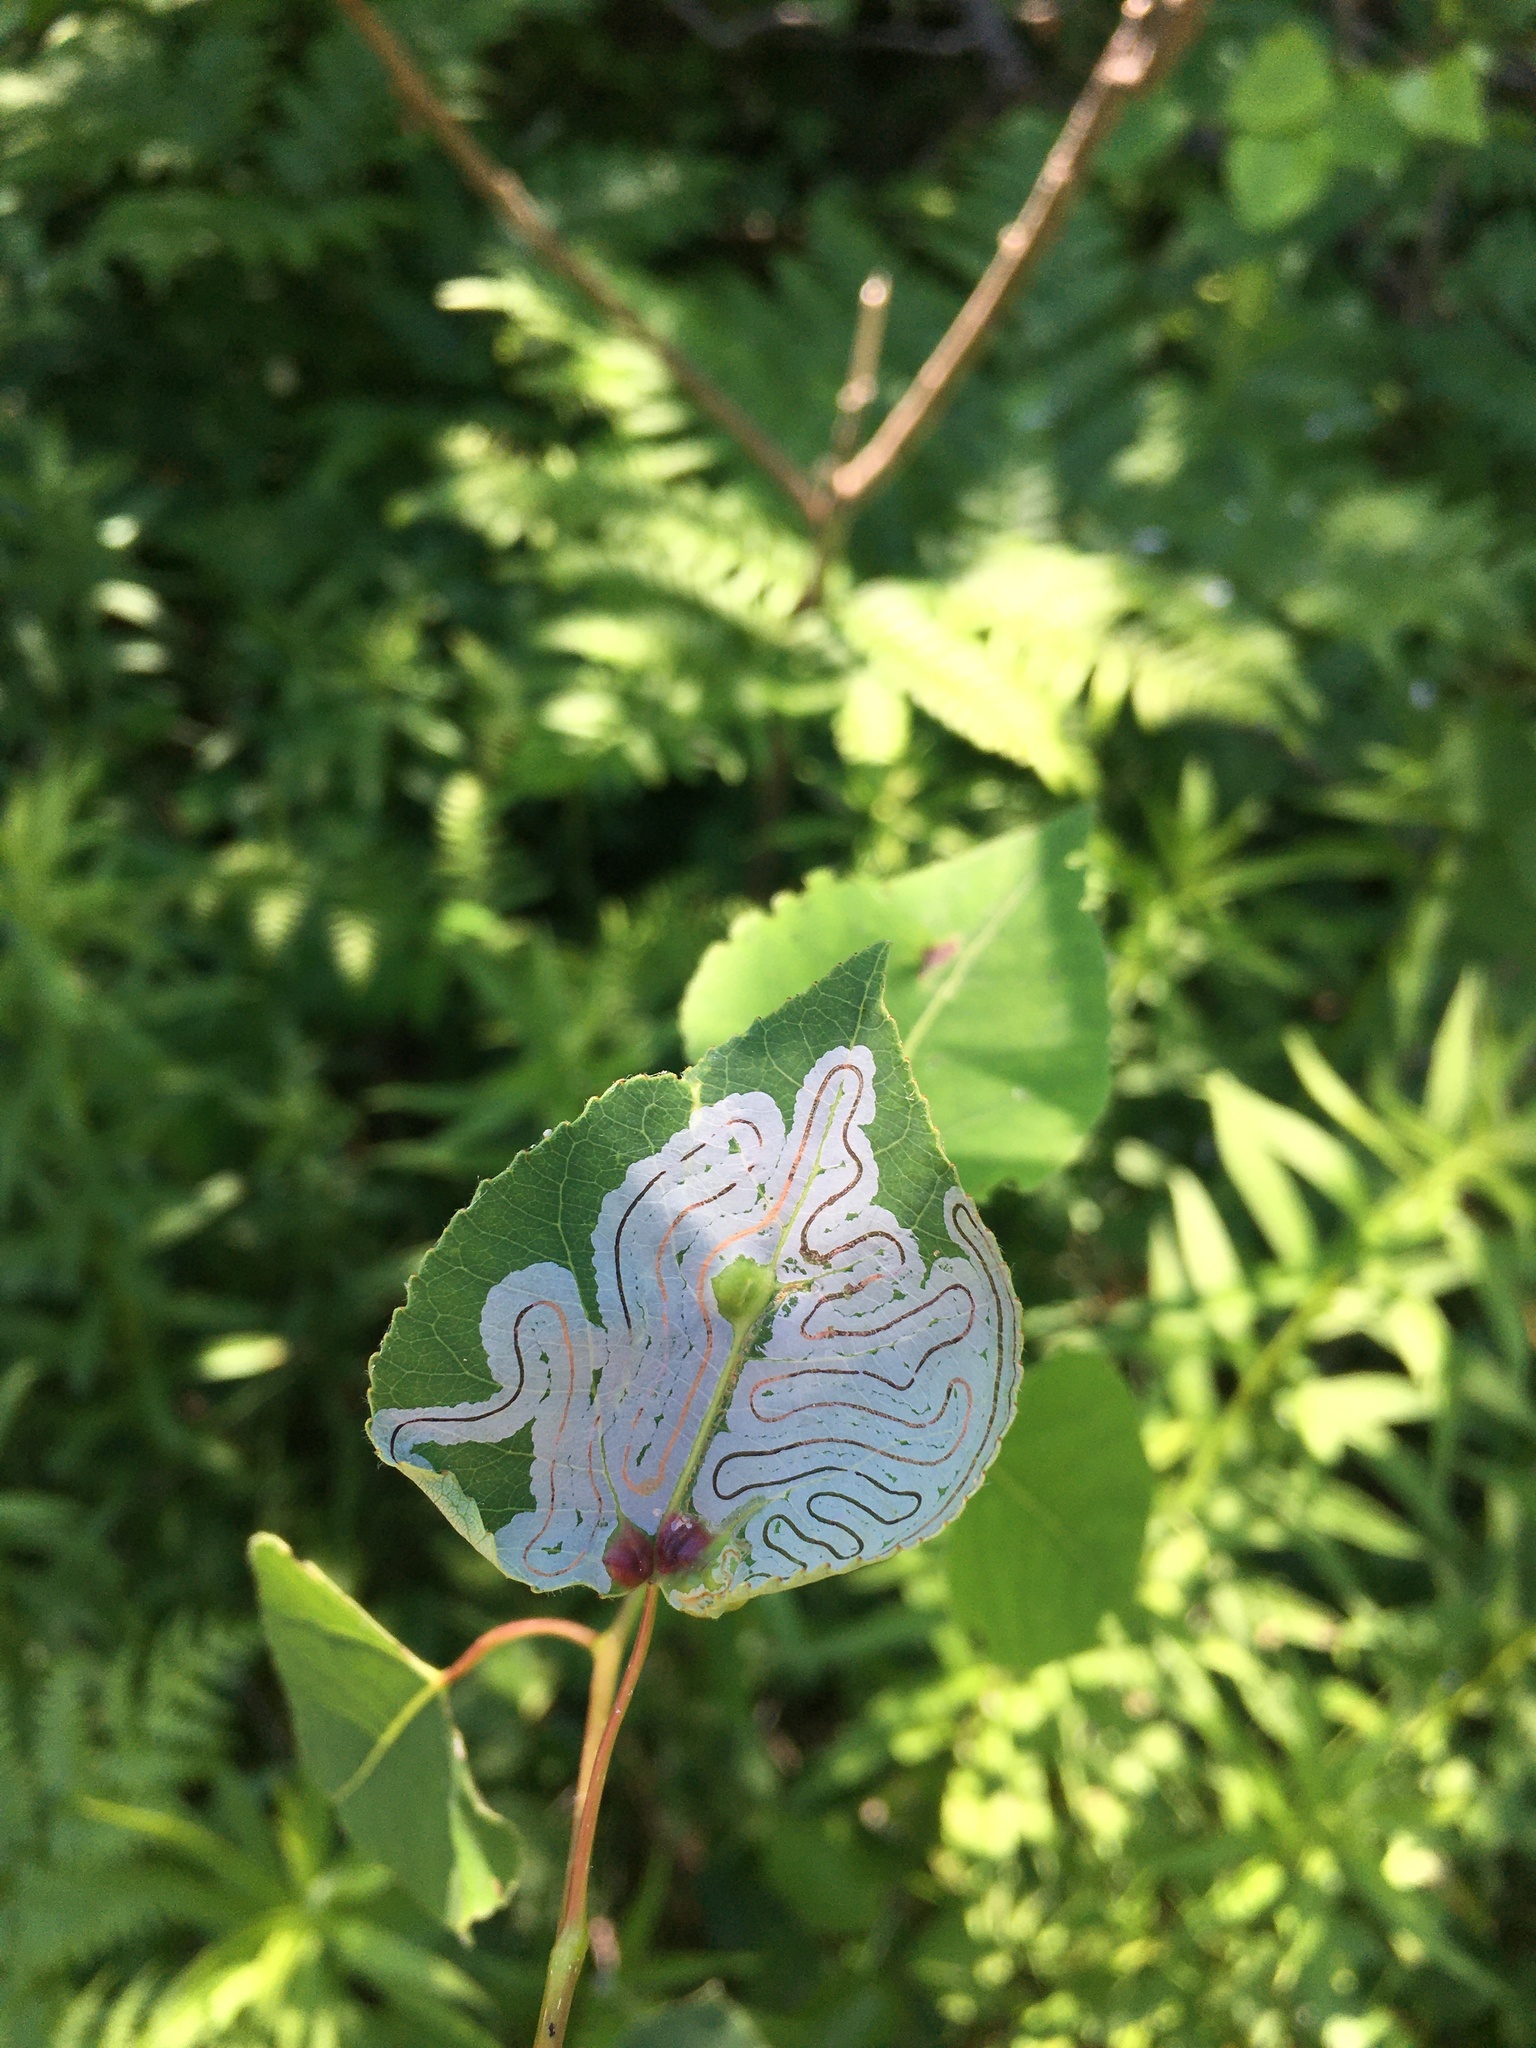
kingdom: Animalia
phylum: Arthropoda
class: Insecta
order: Lepidoptera
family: Gracillariidae
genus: Phyllocnistis
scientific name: Phyllocnistis populiella
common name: Aspen serpentine leafminer moth
